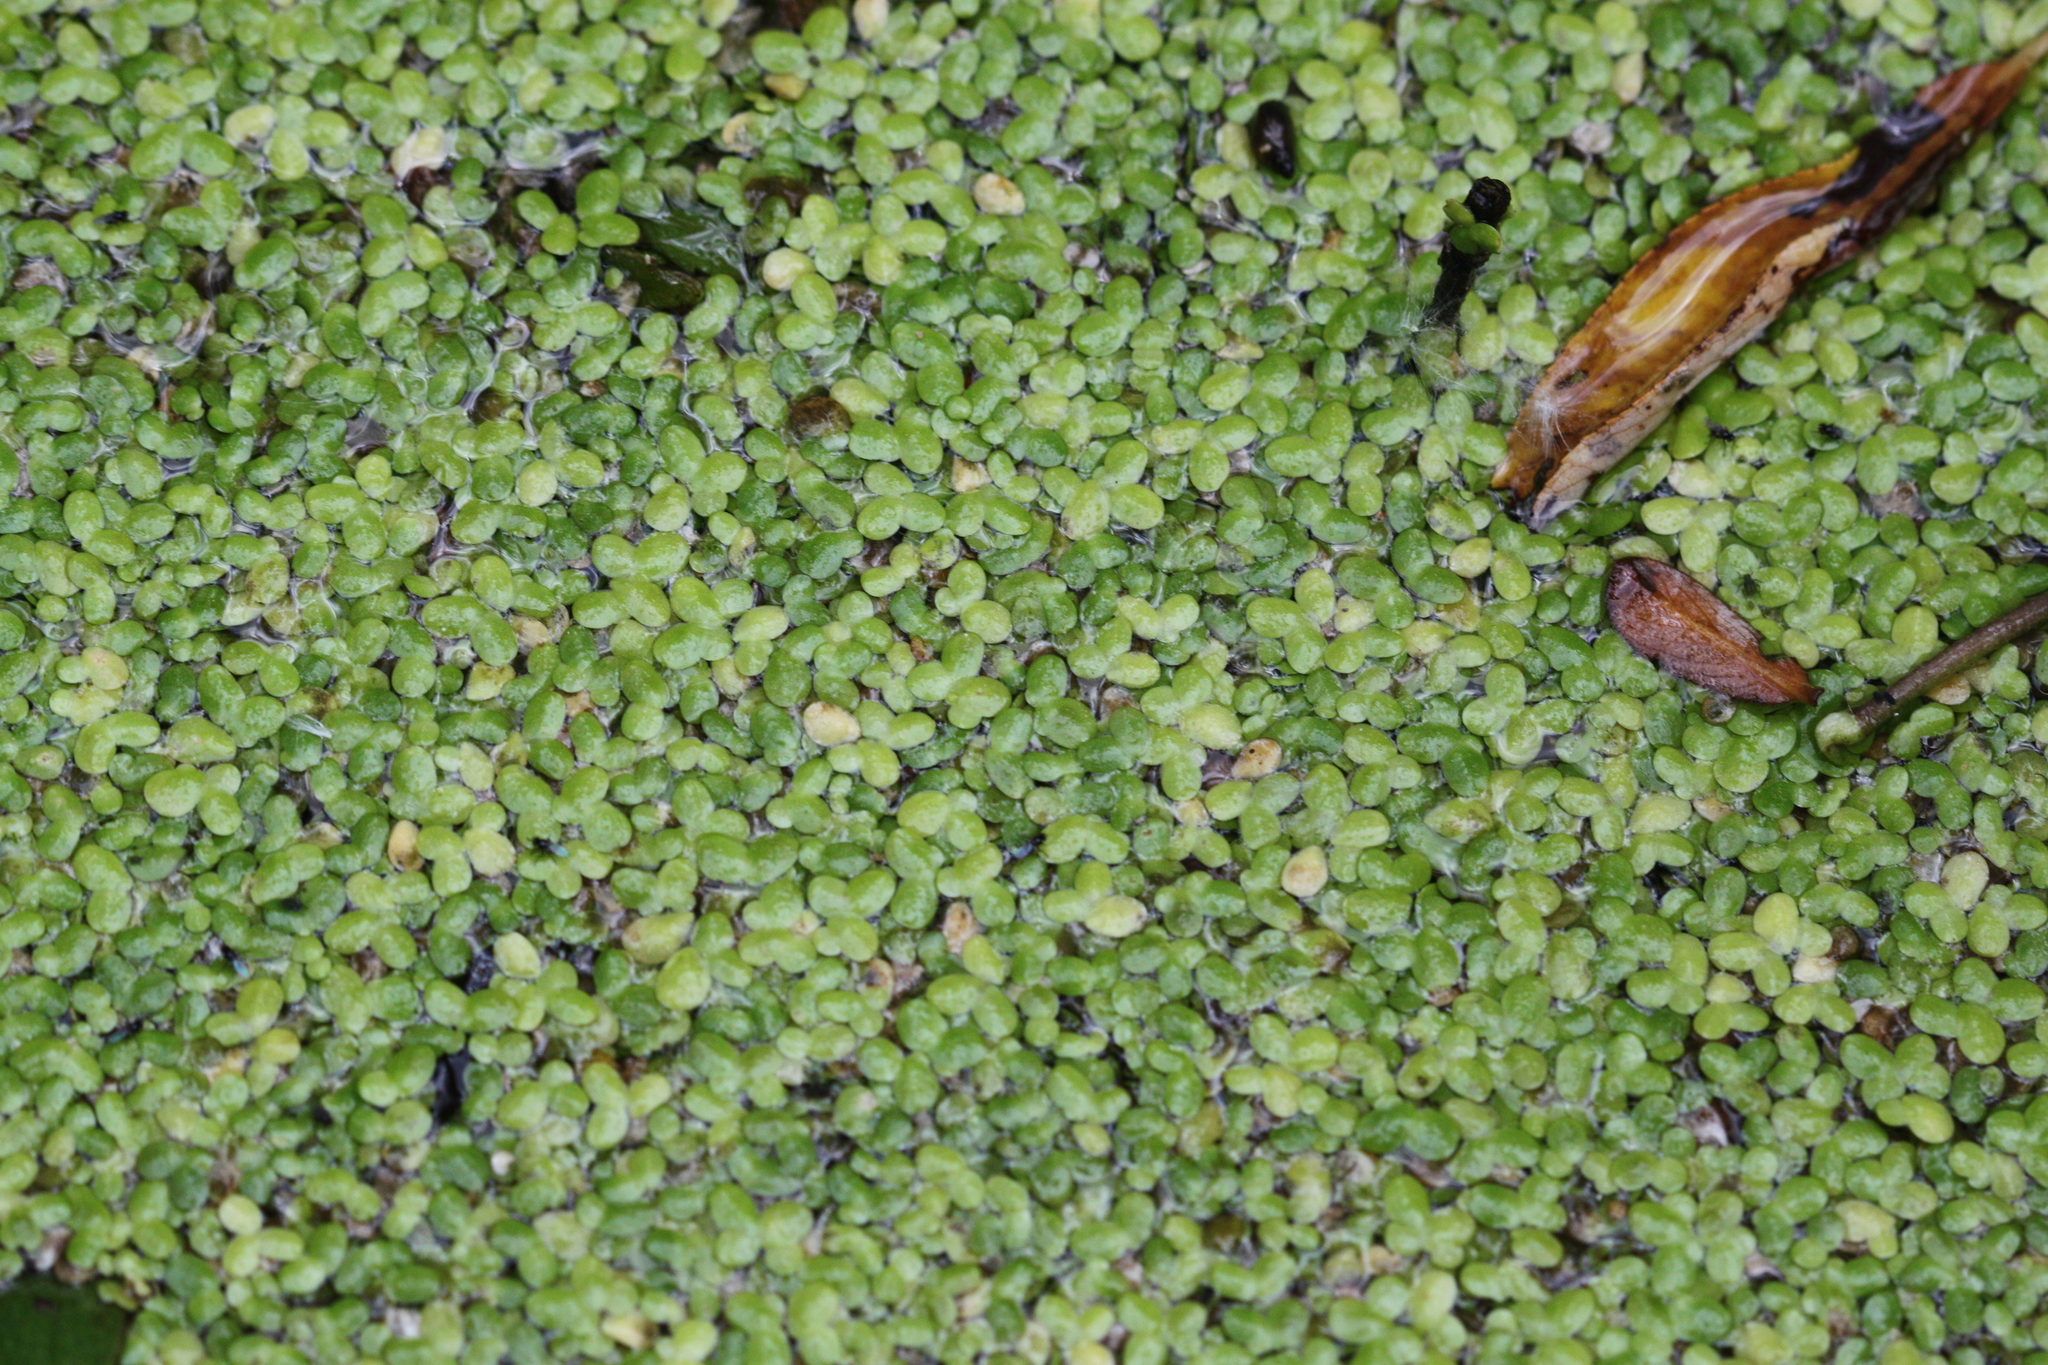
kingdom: Plantae
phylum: Tracheophyta
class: Liliopsida
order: Alismatales
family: Araceae
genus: Lemna
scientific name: Lemna minor
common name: Common duckweed
